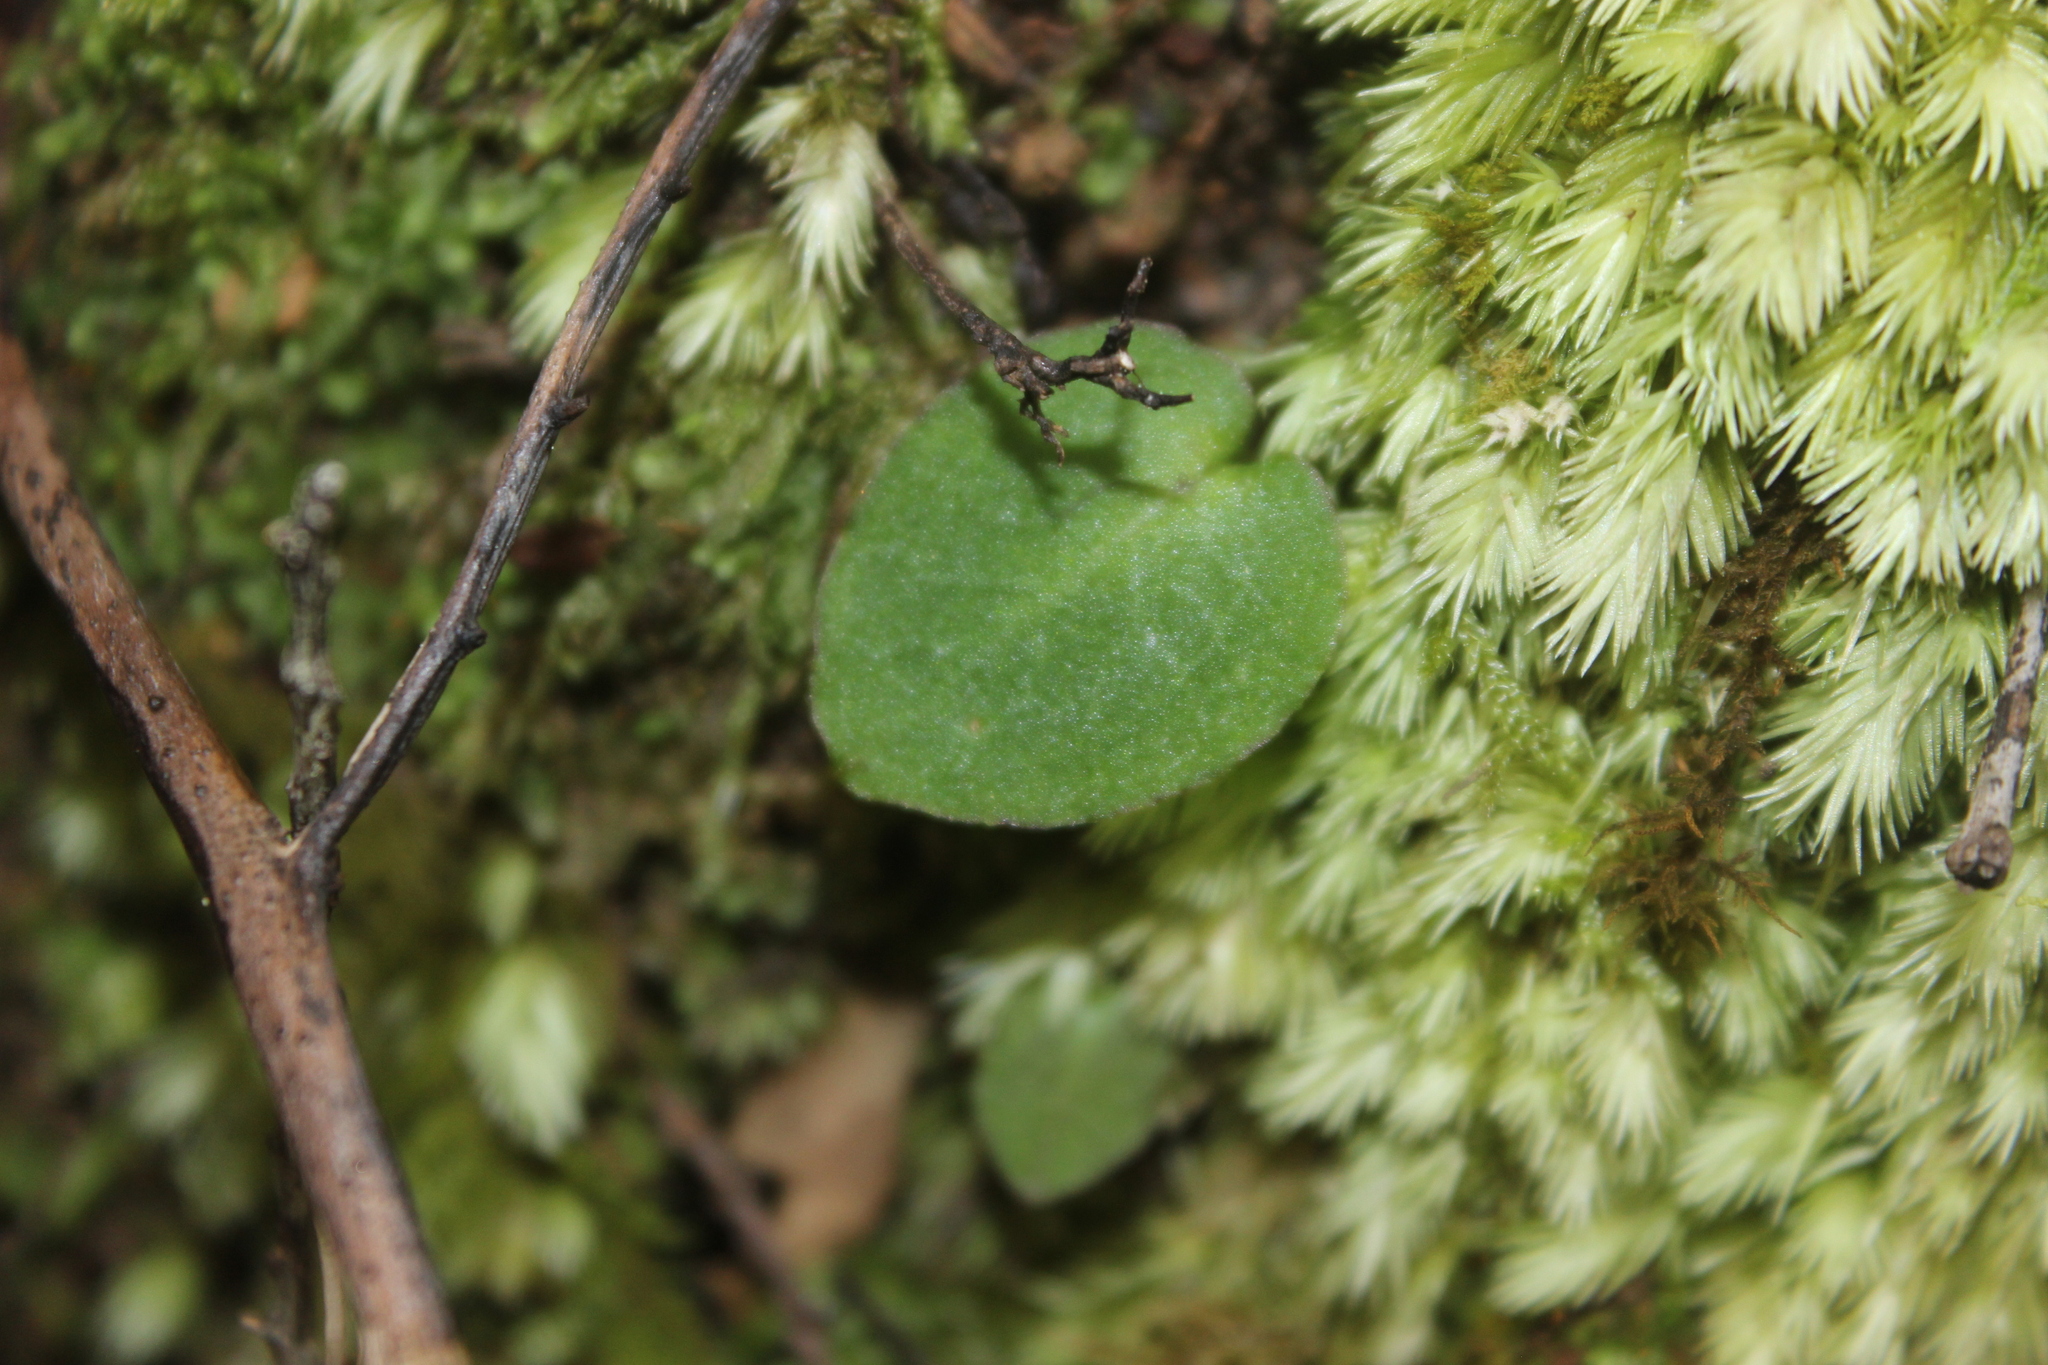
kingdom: Plantae
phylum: Tracheophyta
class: Liliopsida
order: Asparagales
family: Orchidaceae
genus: Corybas
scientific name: Corybas oblongus
